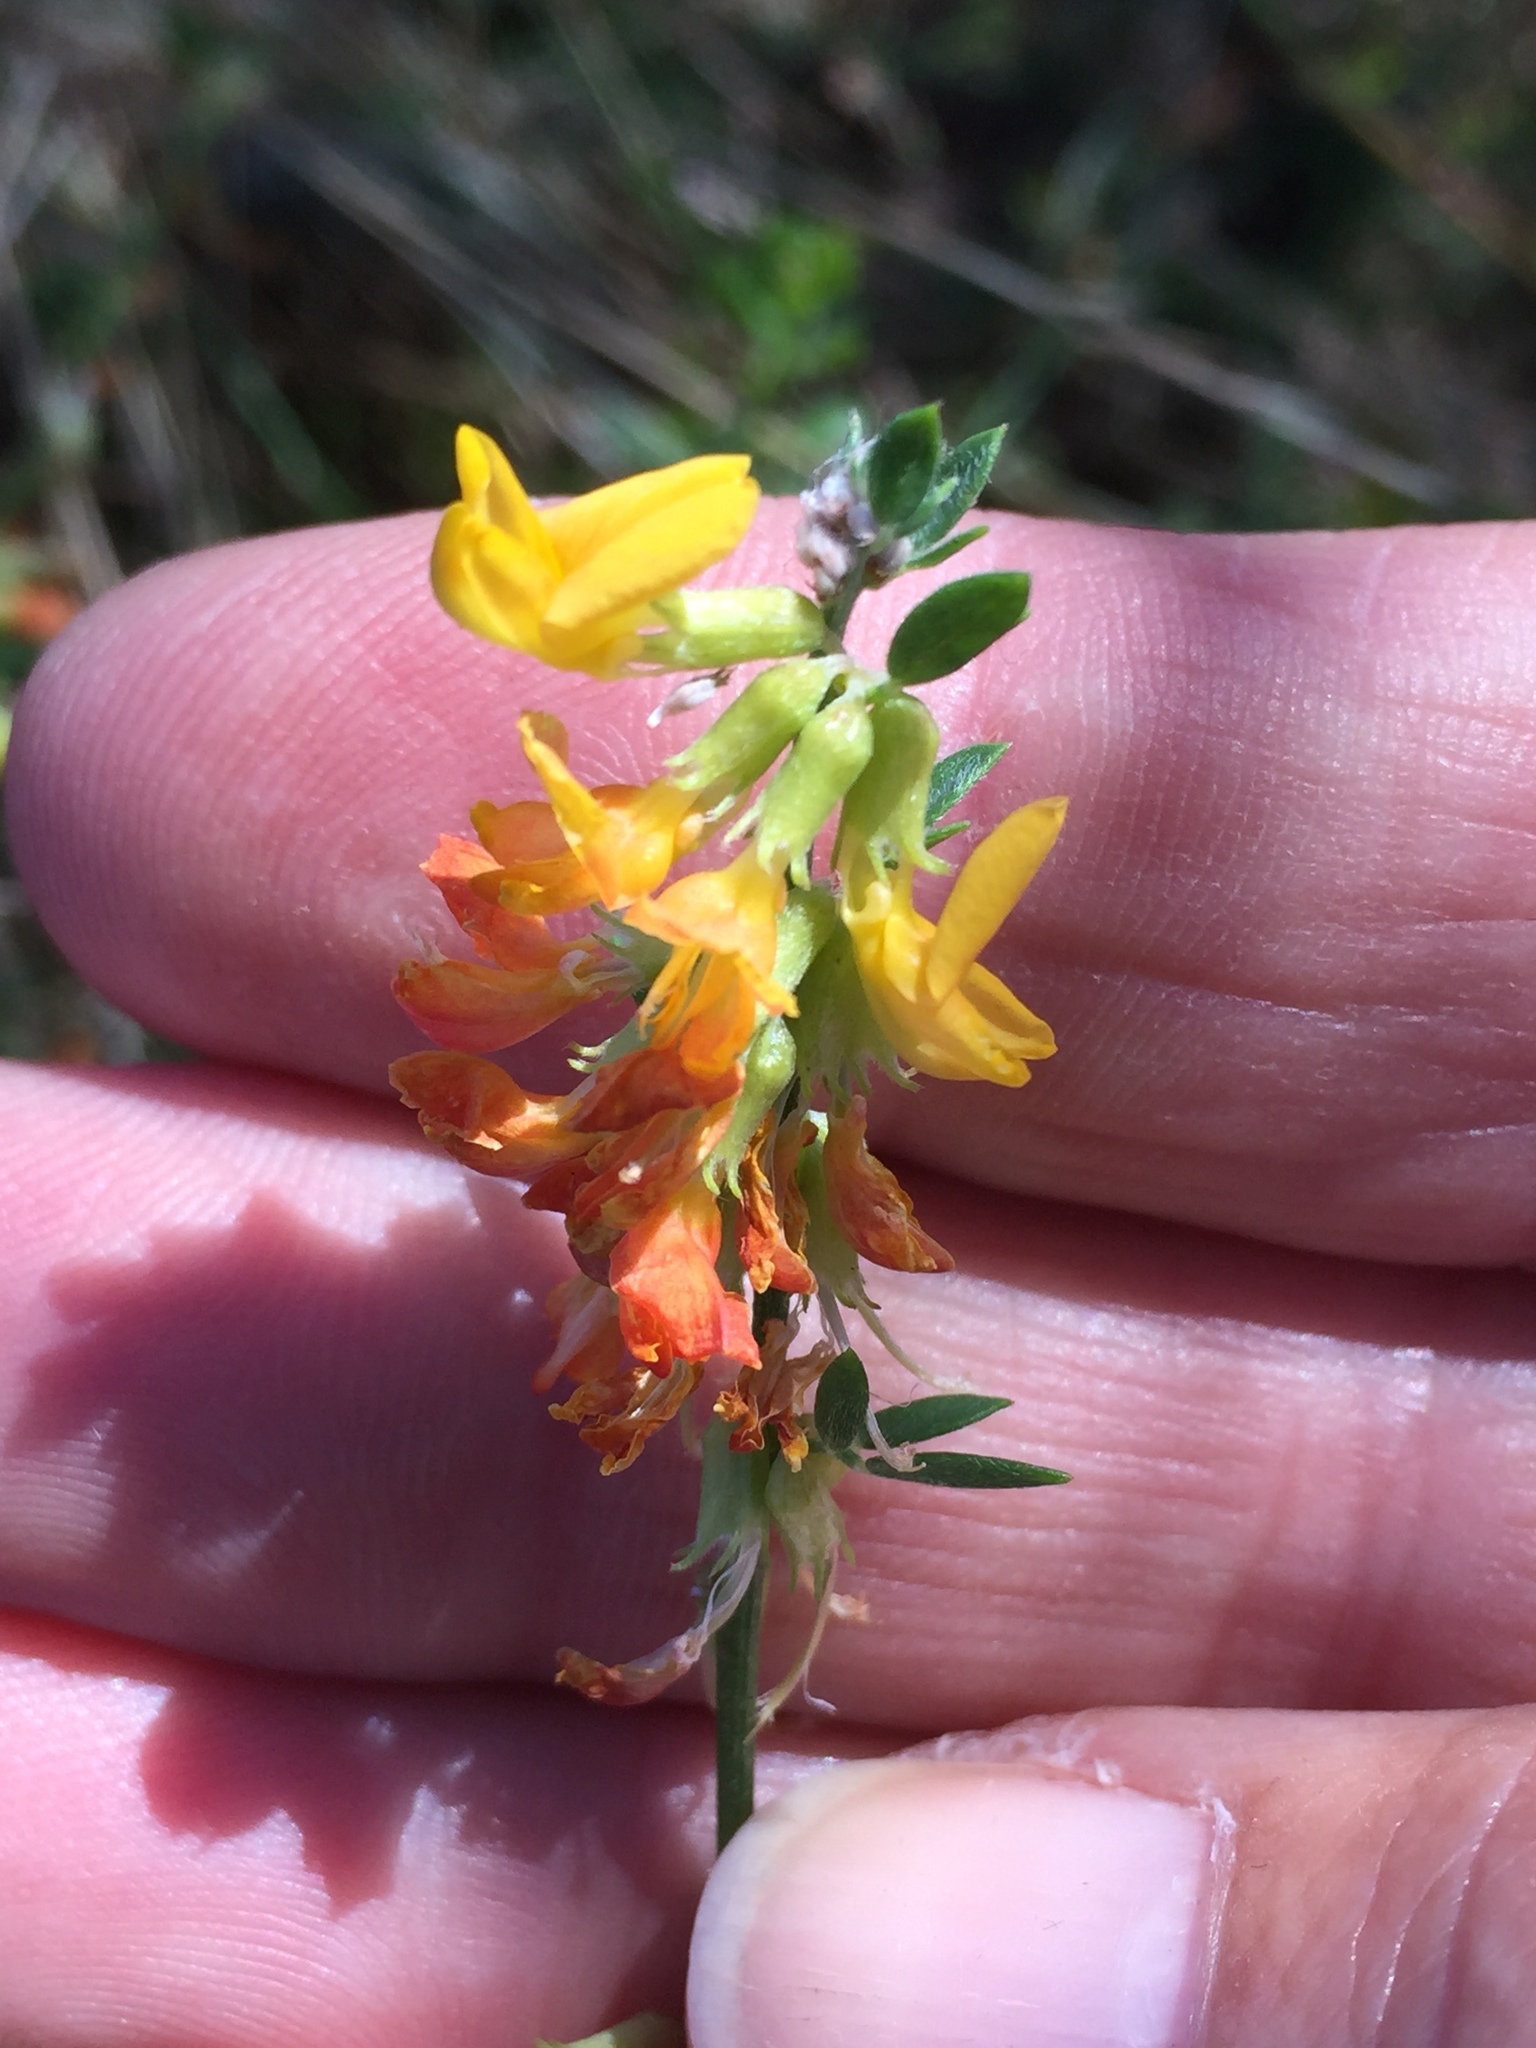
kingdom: Plantae
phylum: Tracheophyta
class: Magnoliopsida
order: Fabales
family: Fabaceae
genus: Acmispon
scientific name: Acmispon glaber
